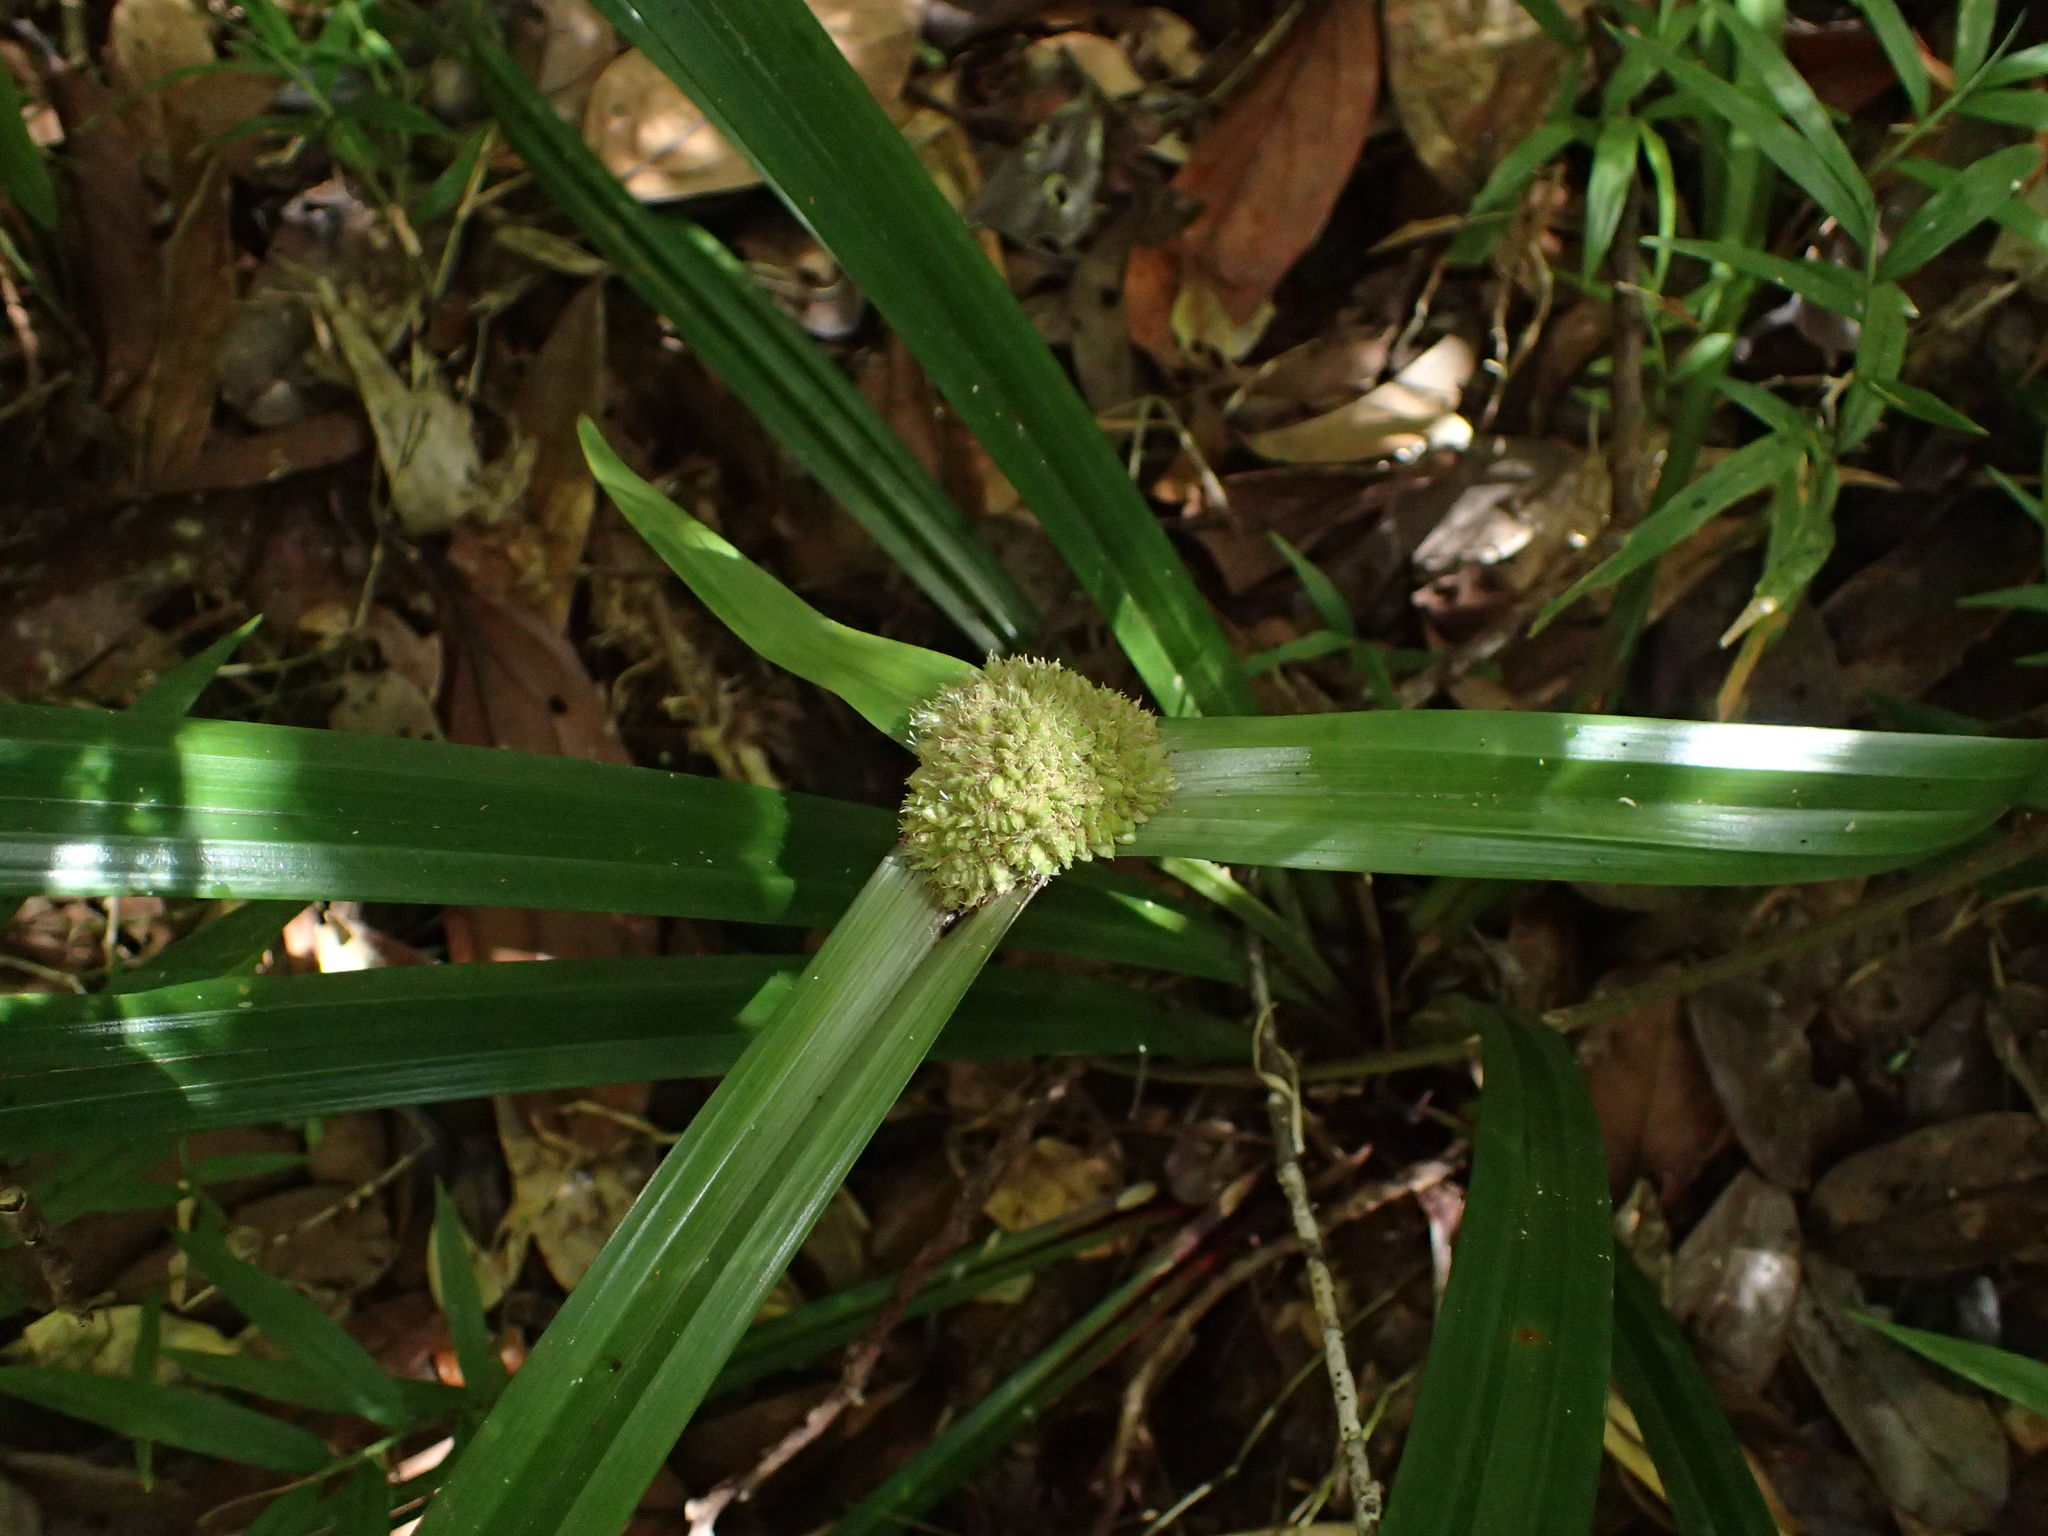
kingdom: Plantae
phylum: Tracheophyta
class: Liliopsida
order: Poales
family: Cyperaceae
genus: Cyperus
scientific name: Cyperus molliglumis
